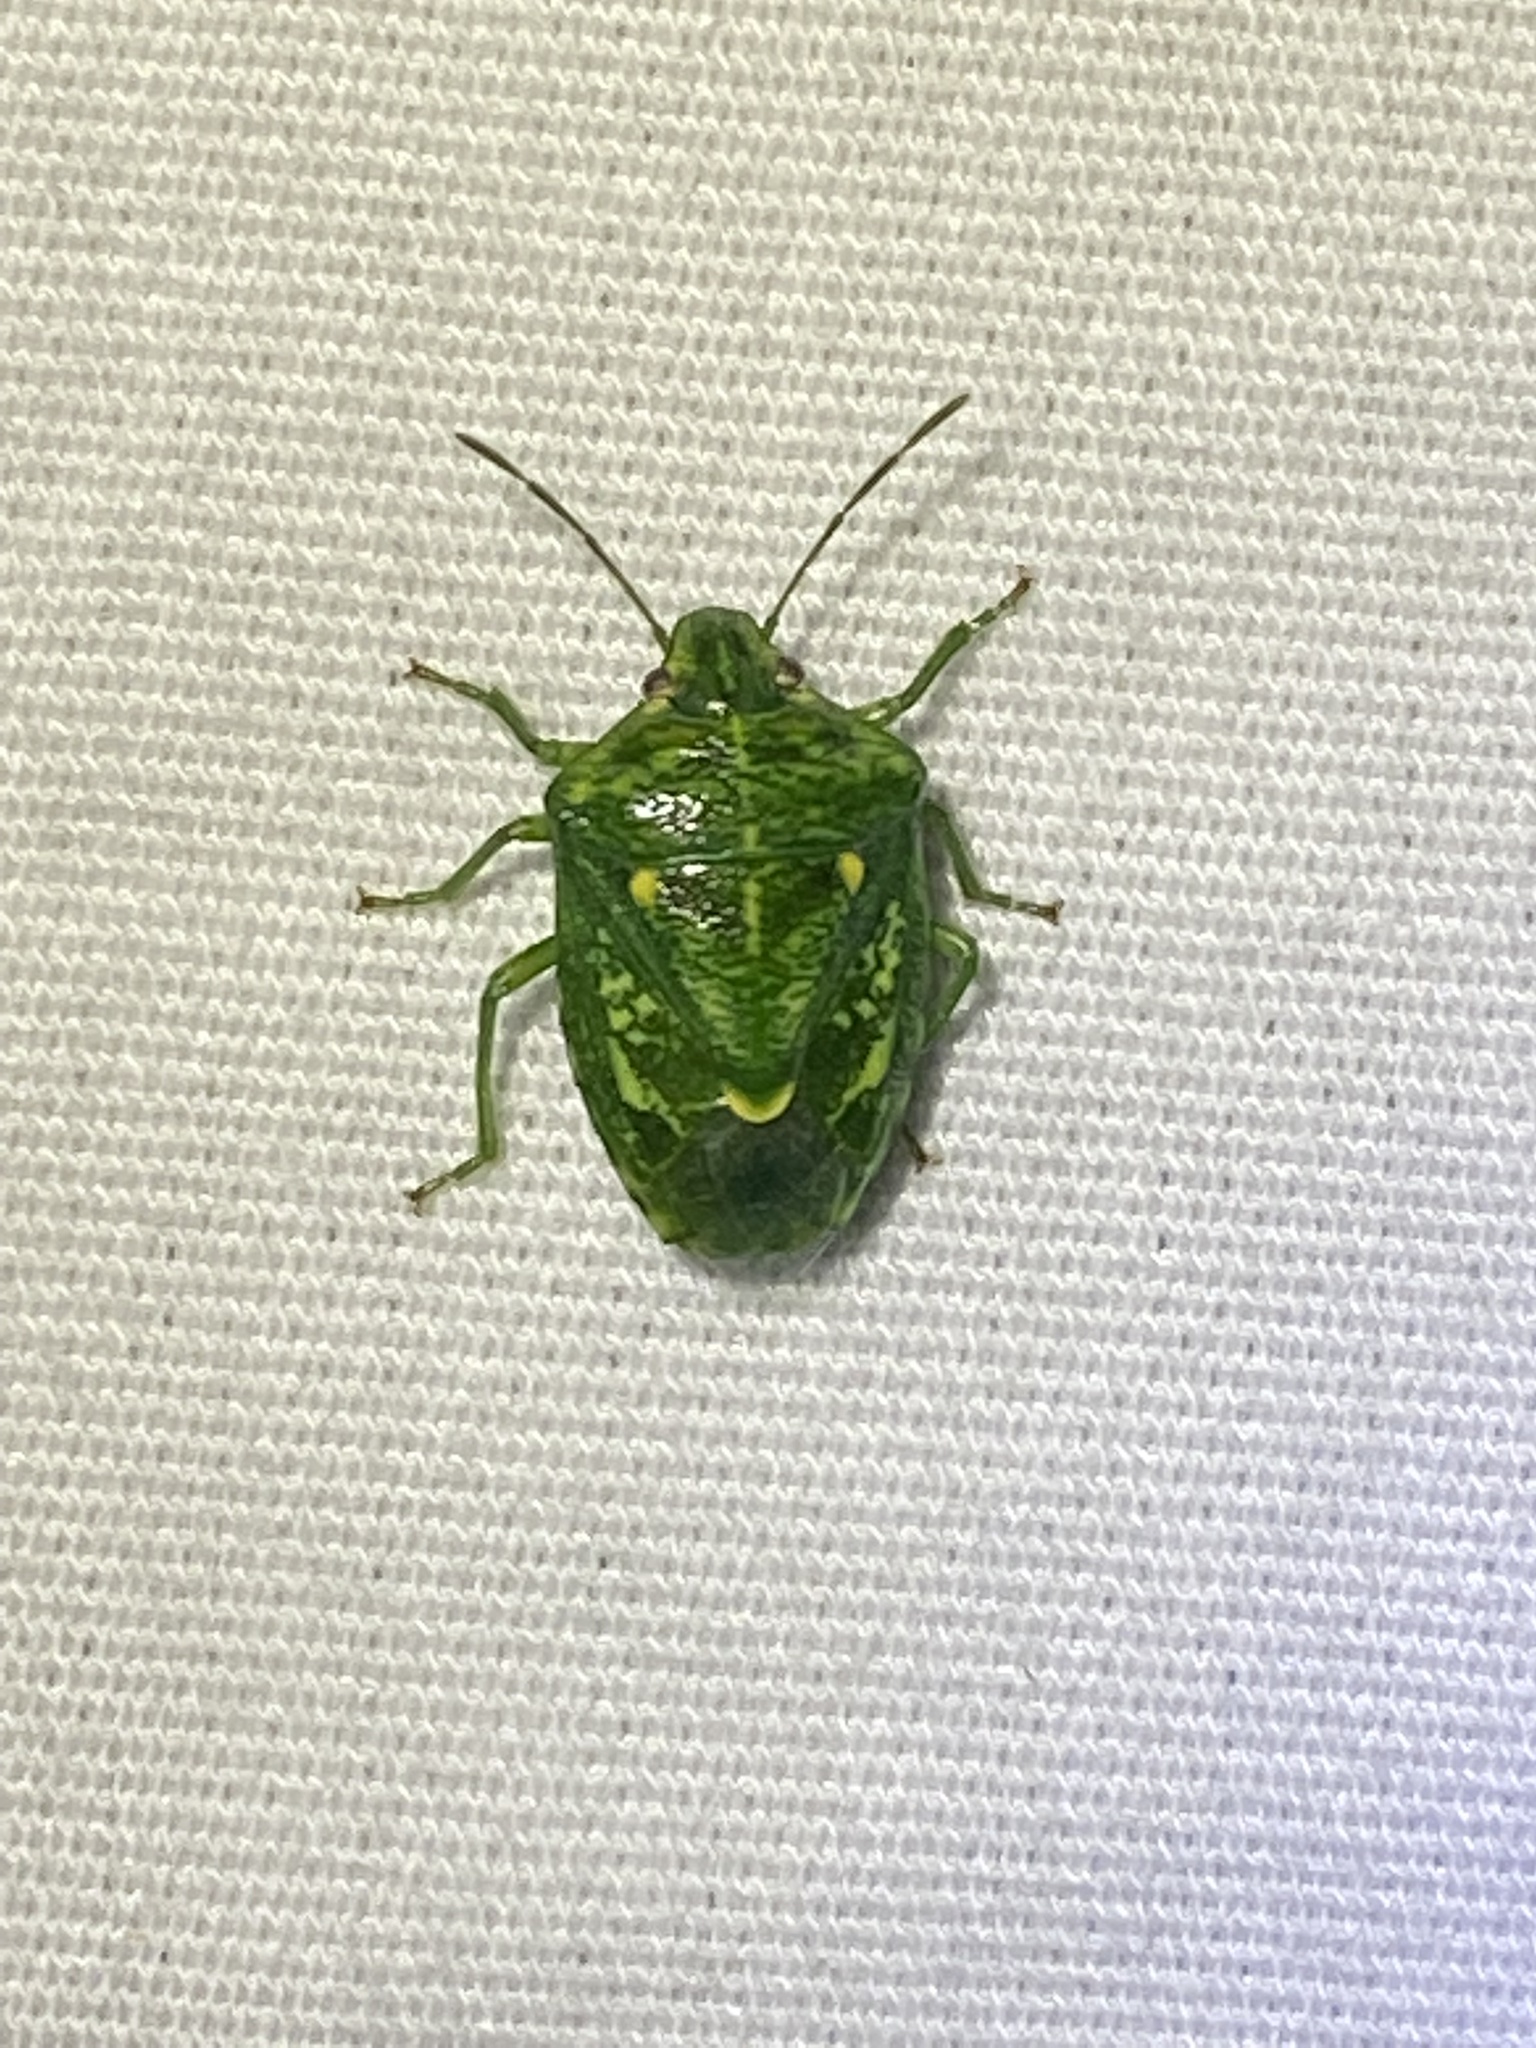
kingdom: Animalia
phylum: Arthropoda
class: Insecta
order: Hemiptera
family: Pentatomidae
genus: Banasa
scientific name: Banasa euchlora
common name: Cedar berry bug
